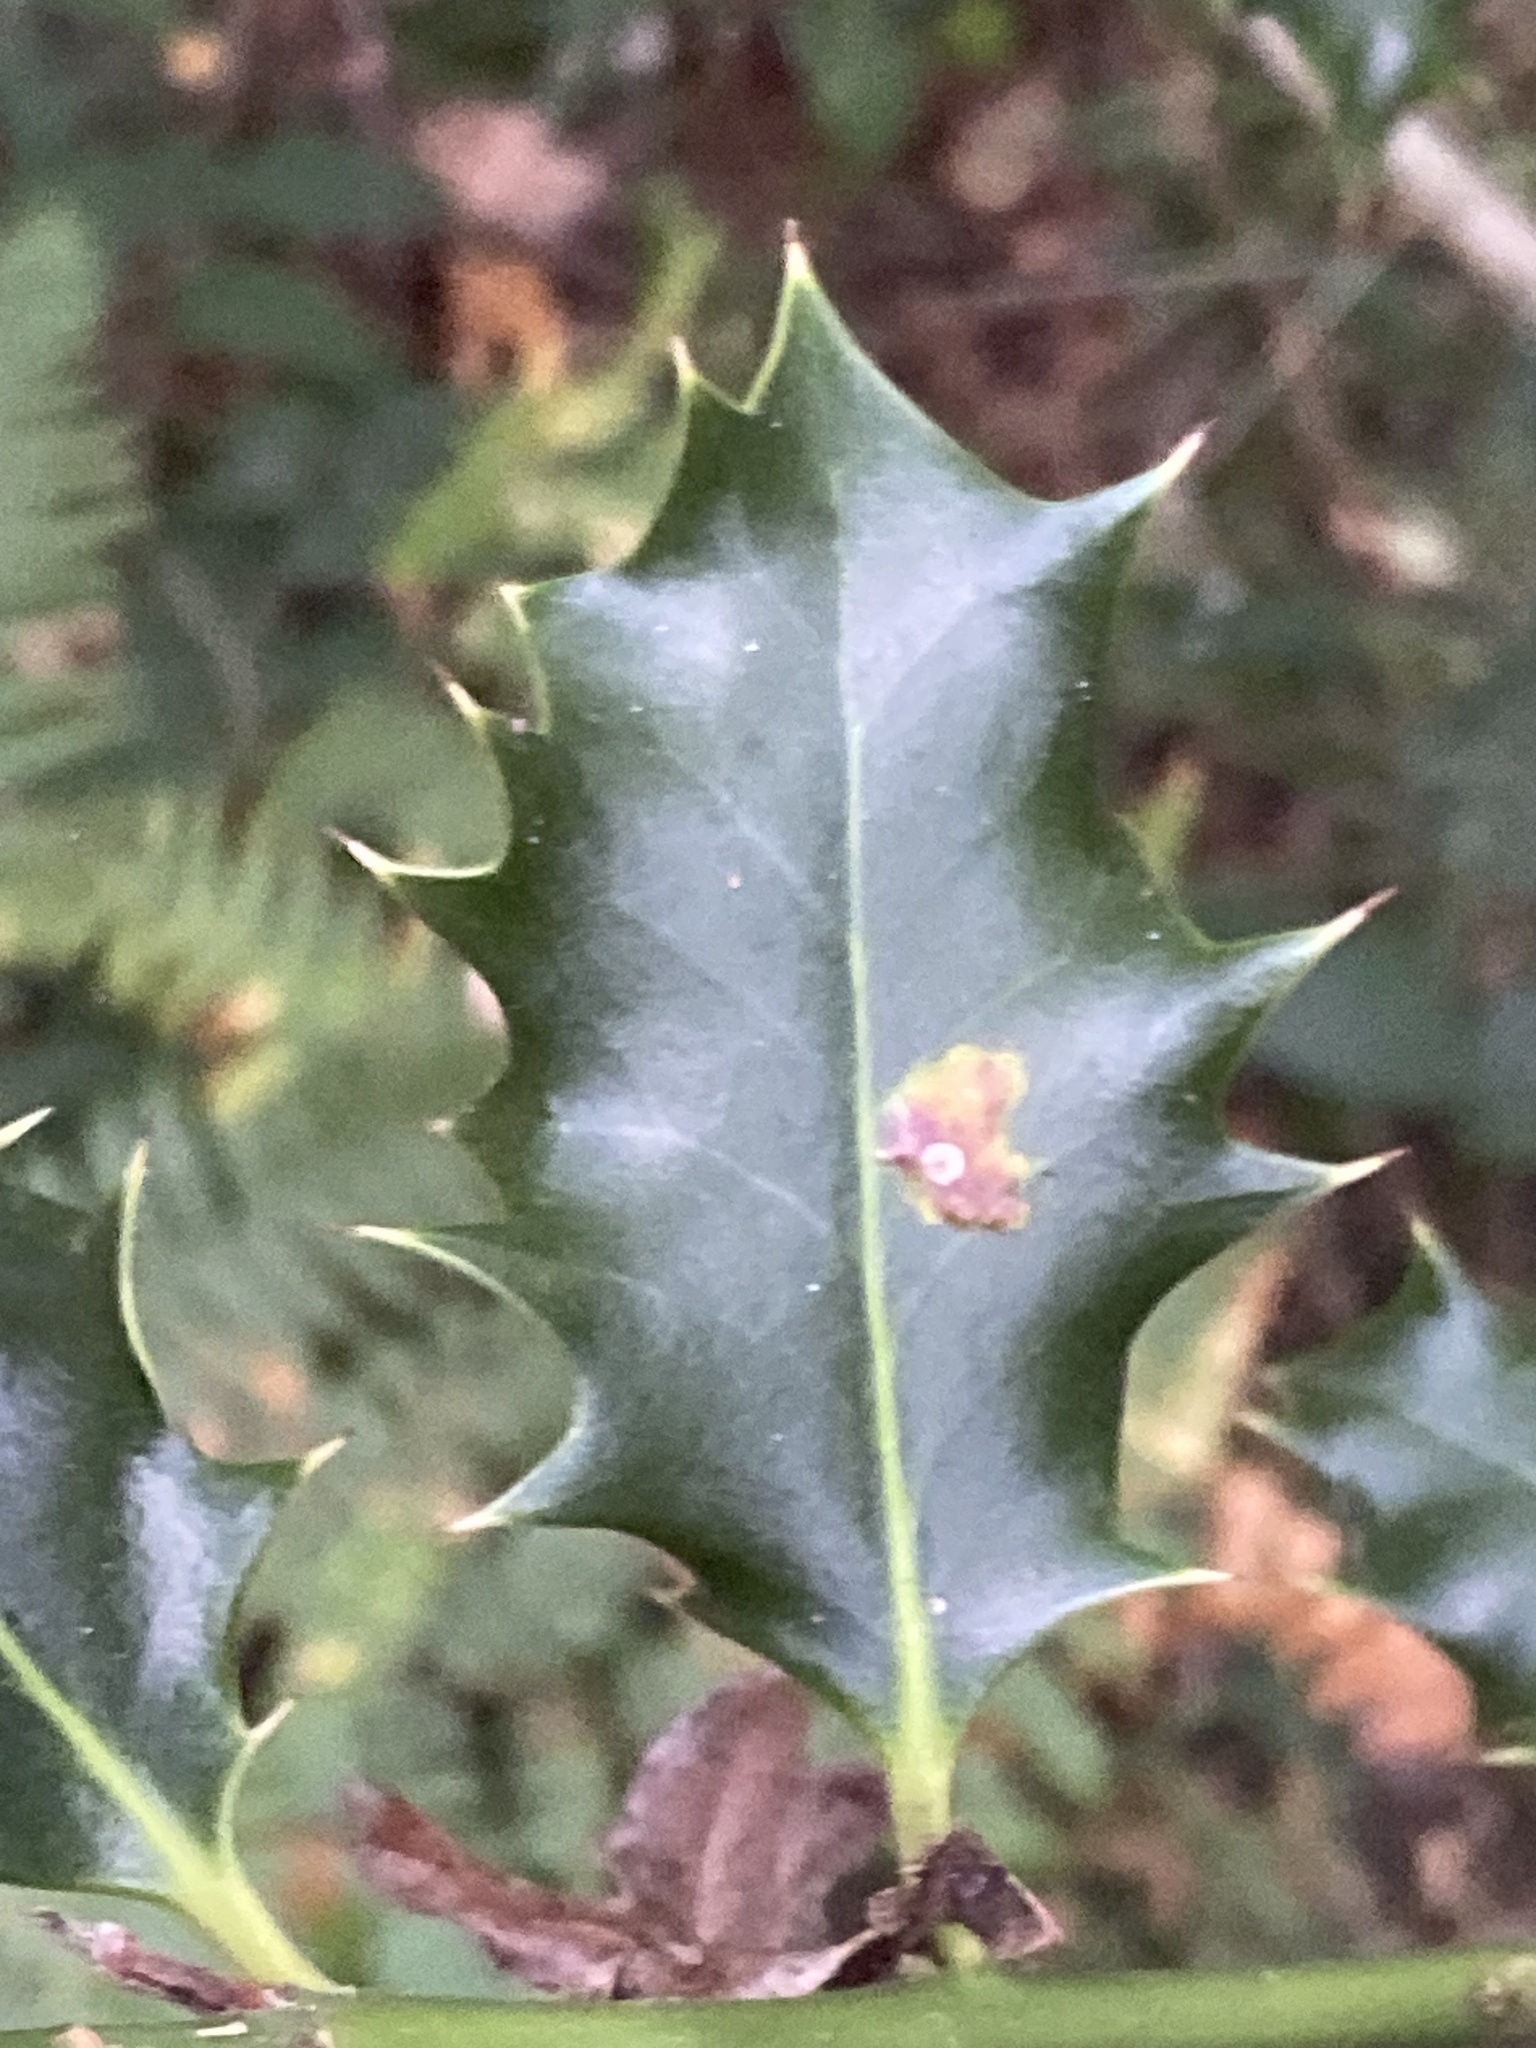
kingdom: Animalia
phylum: Arthropoda
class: Insecta
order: Diptera
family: Agromyzidae
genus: Phytomyza
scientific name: Phytomyza ilicis
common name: Holly leafminer
